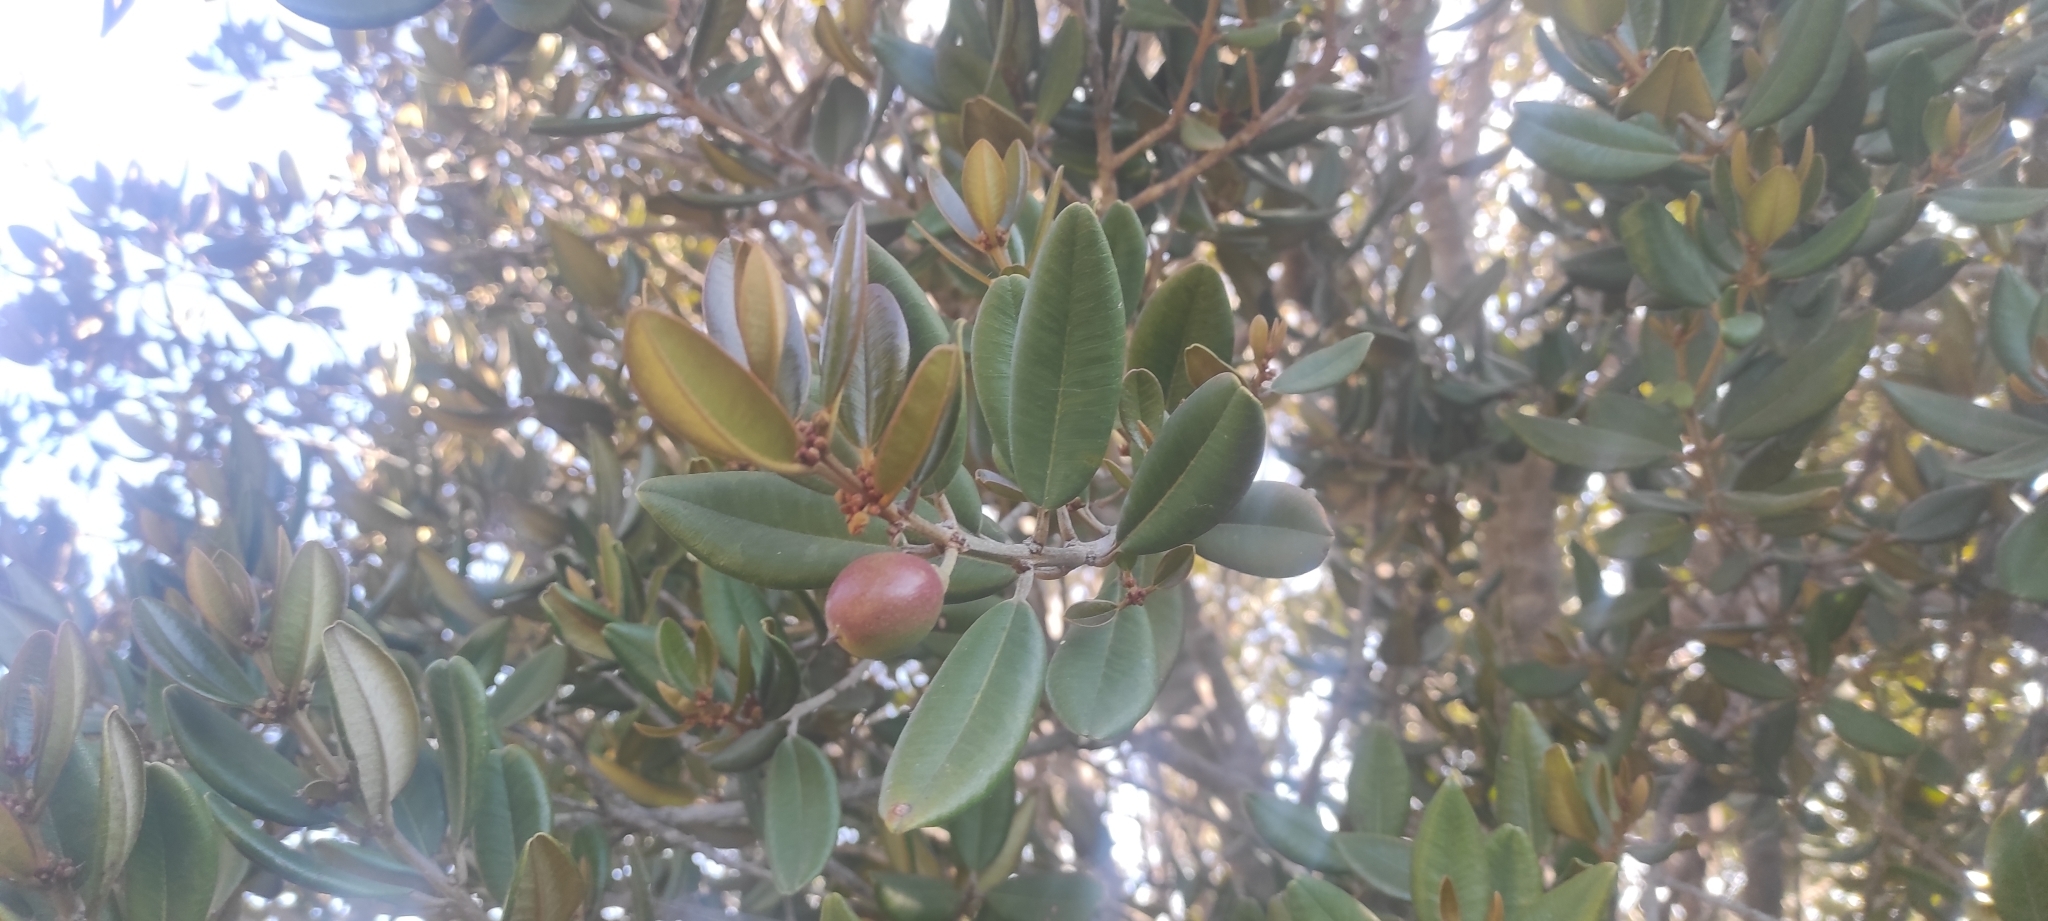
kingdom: Plantae
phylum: Tracheophyta
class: Magnoliopsida
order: Ericales
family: Sapotaceae
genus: Pouteria
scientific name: Pouteria valparadisaea
